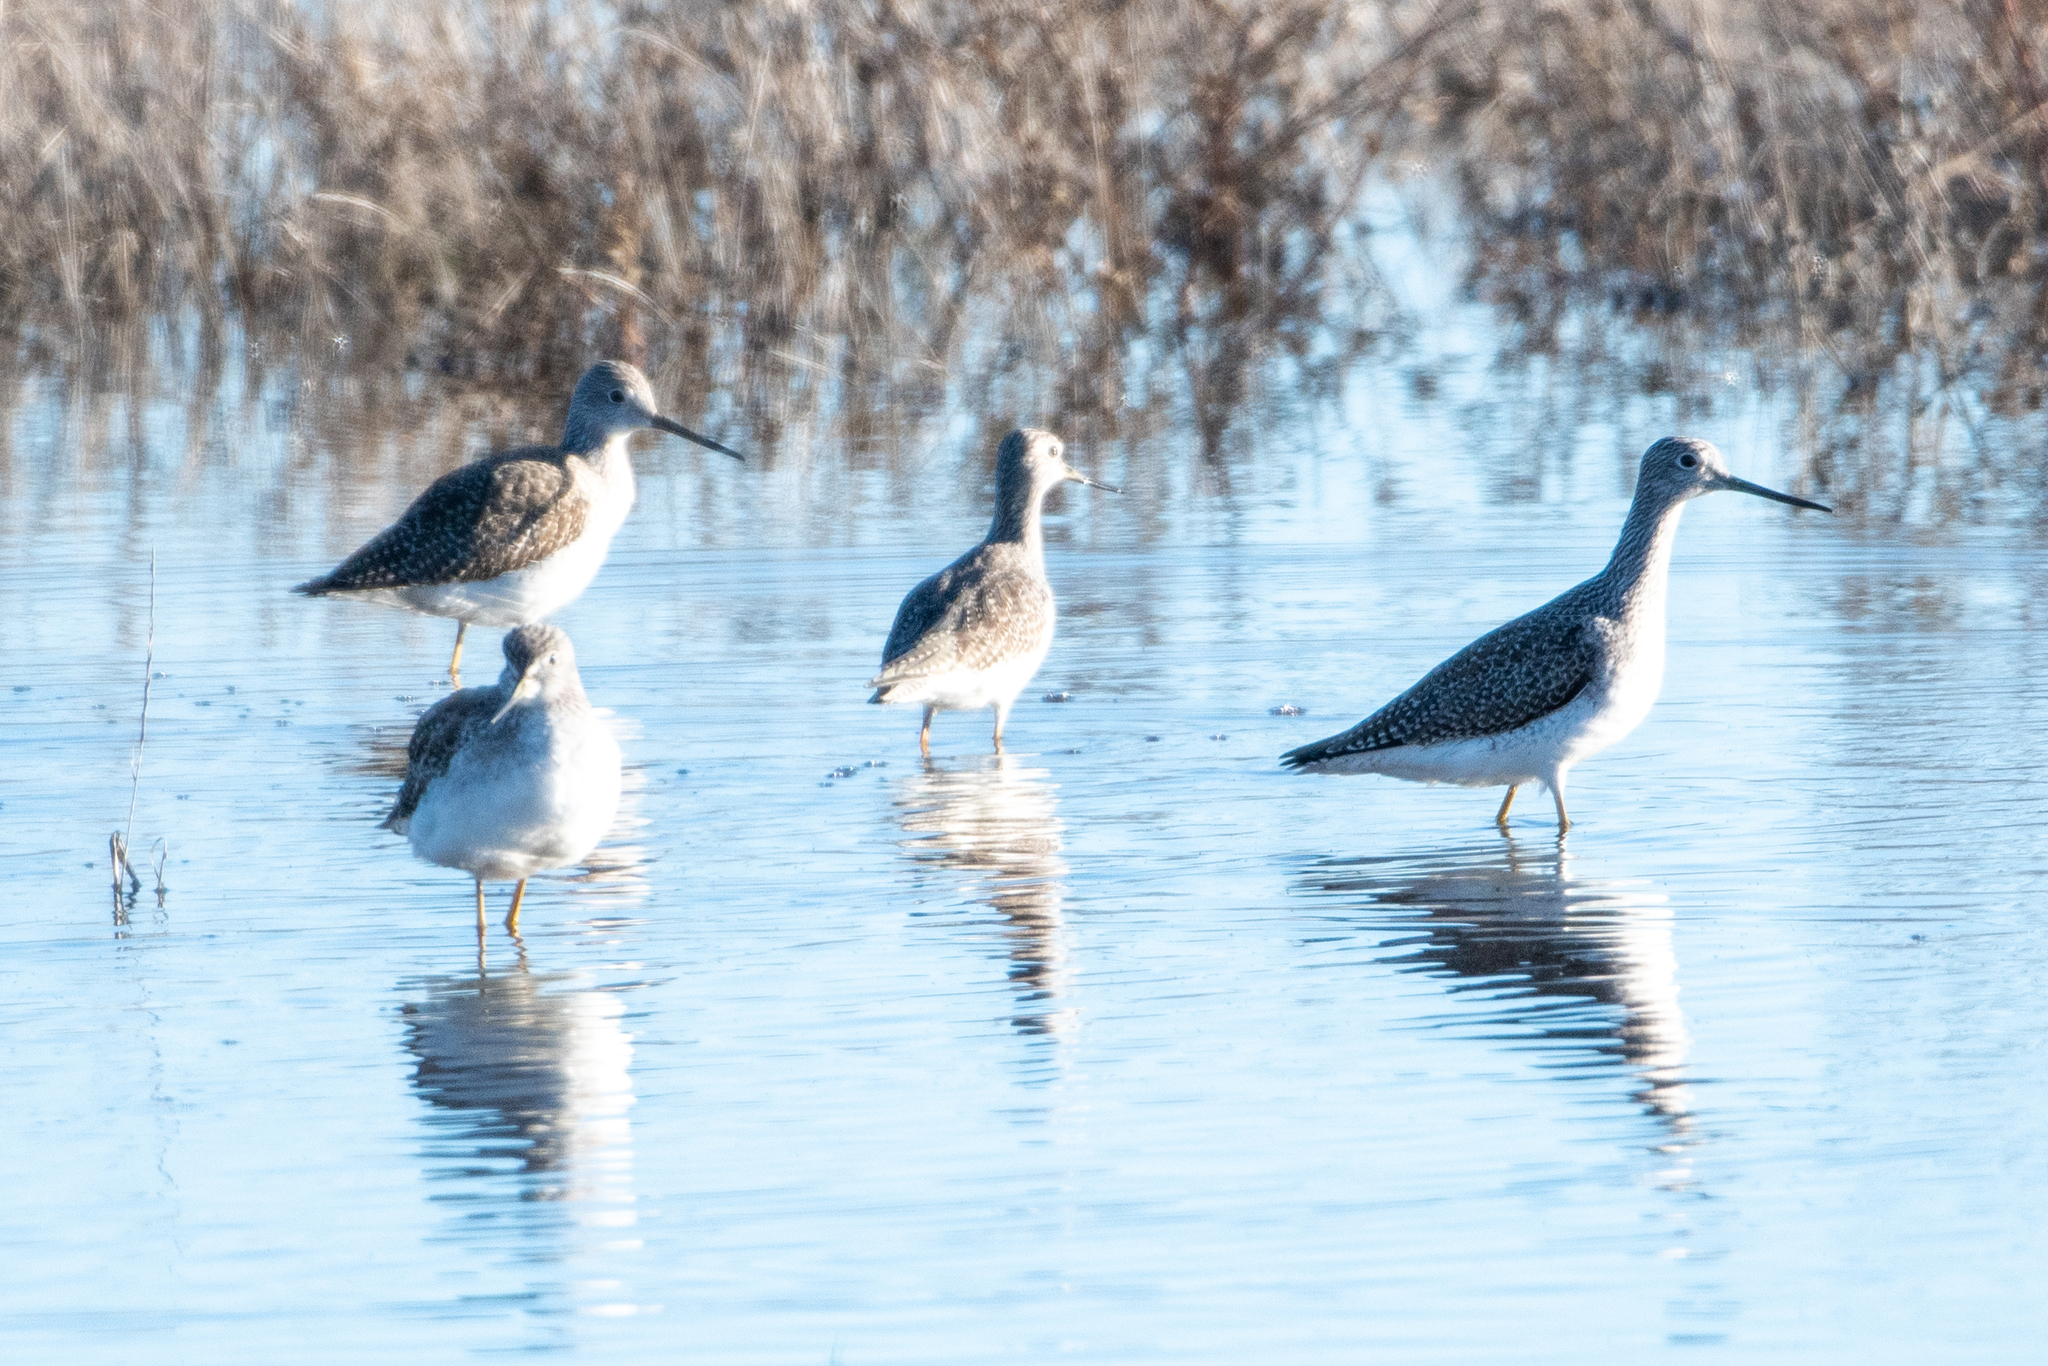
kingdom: Animalia
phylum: Chordata
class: Aves
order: Charadriiformes
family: Scolopacidae
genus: Tringa
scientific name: Tringa melanoleuca
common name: Greater yellowlegs
